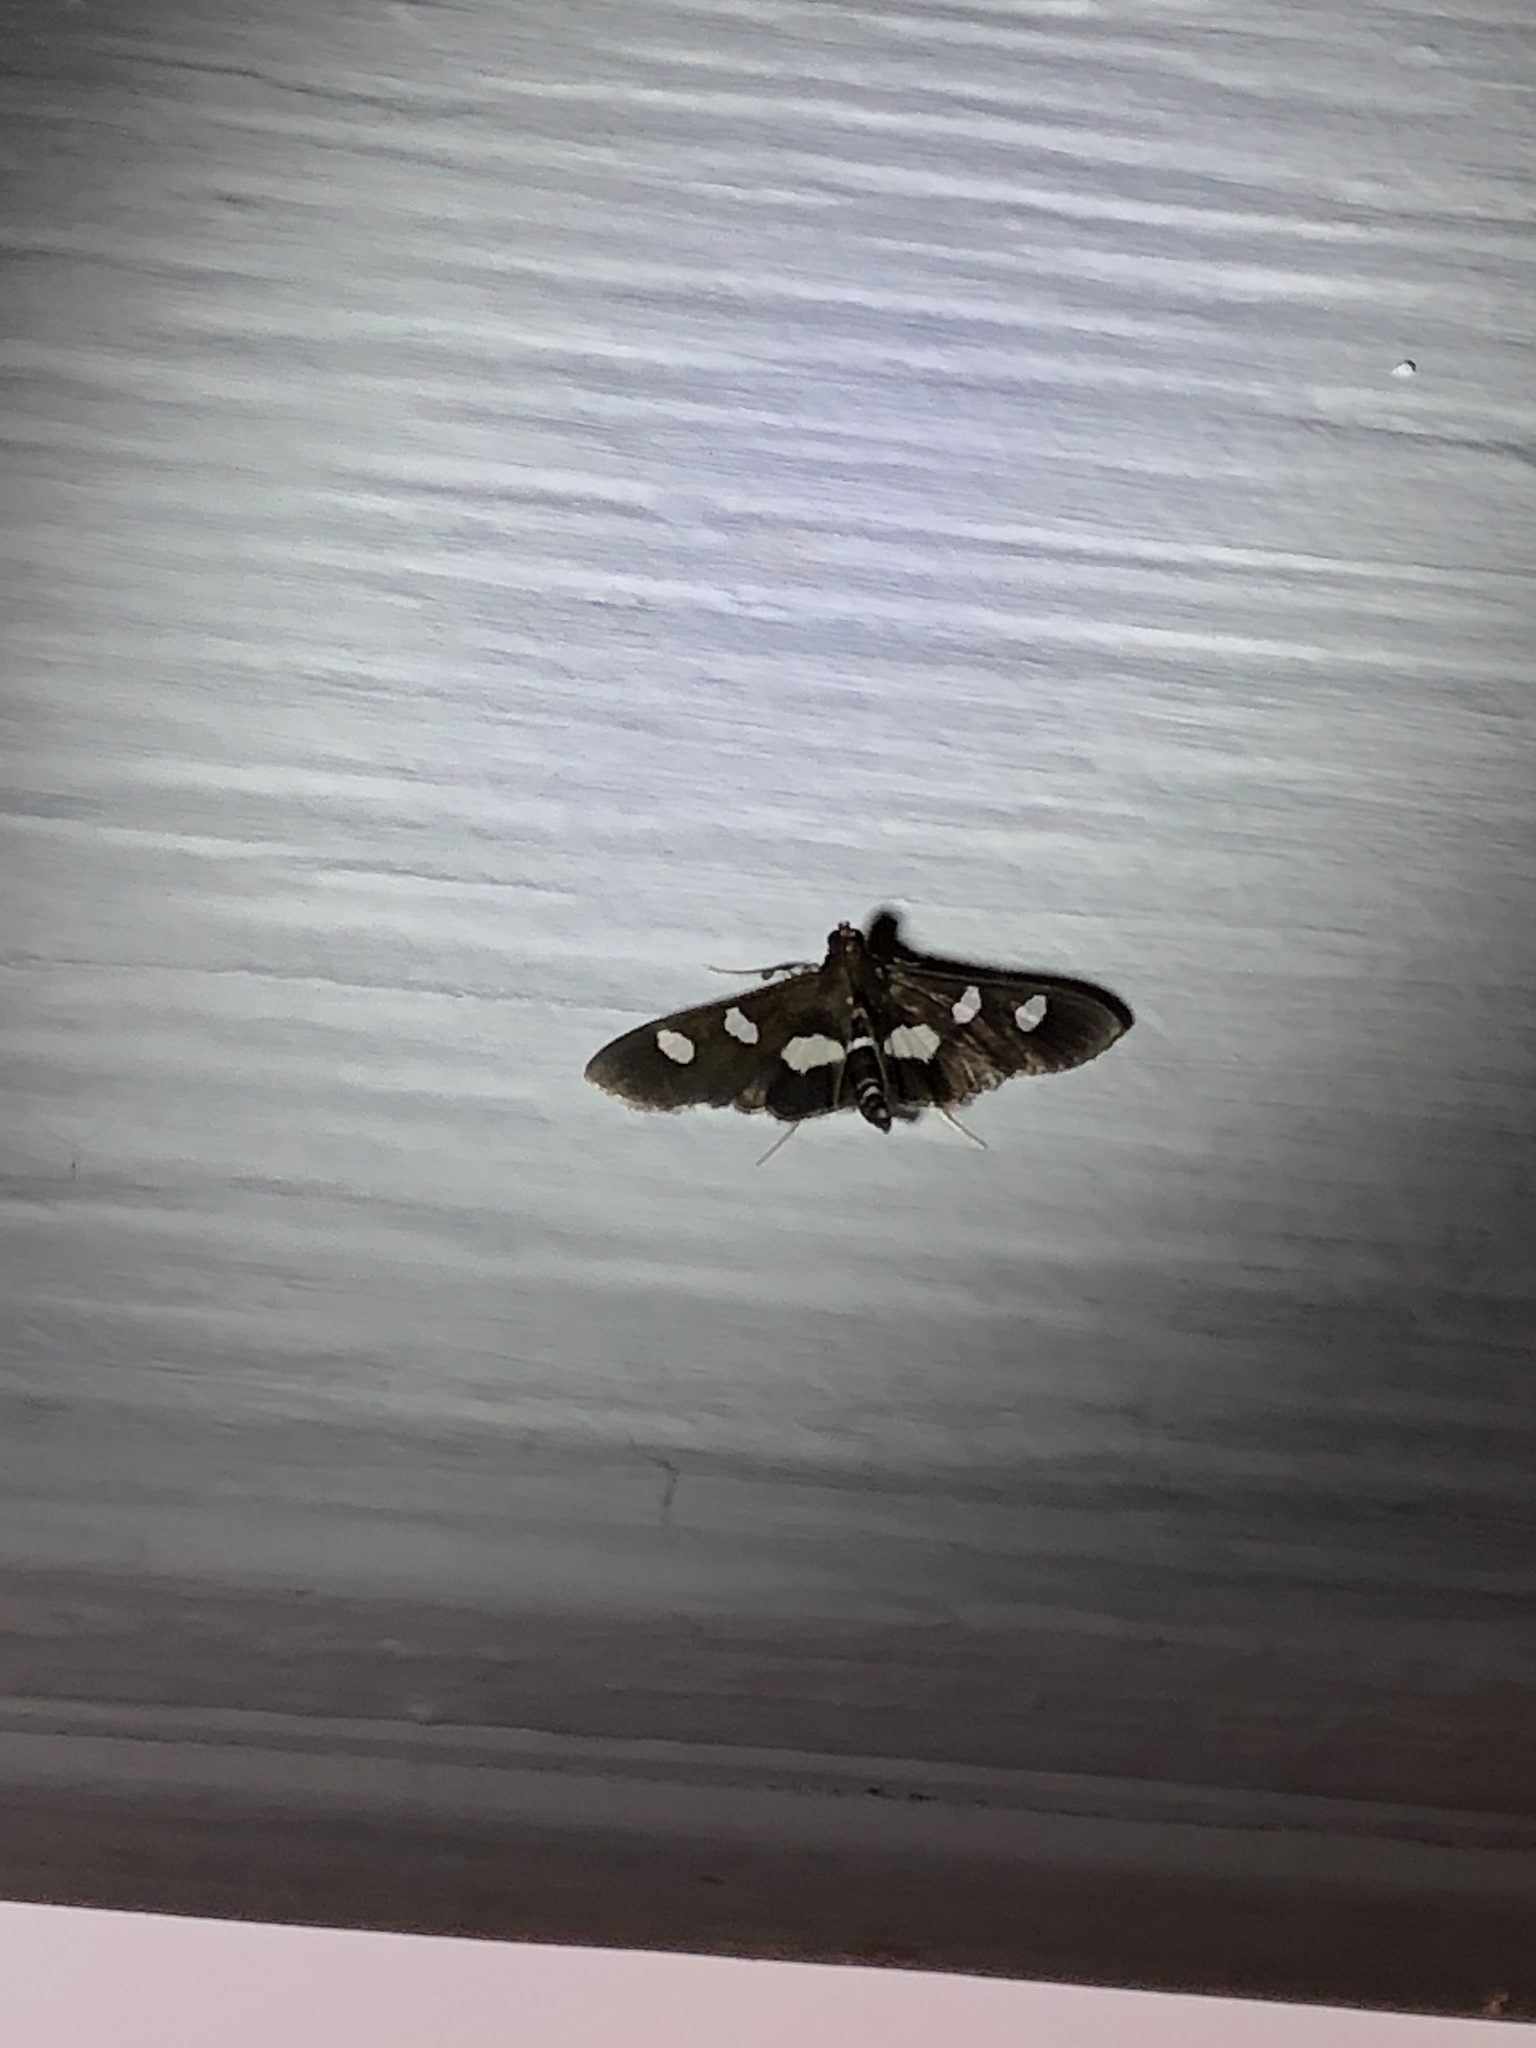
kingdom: Animalia
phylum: Arthropoda
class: Insecta
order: Lepidoptera
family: Crambidae
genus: Desmia
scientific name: Desmia
